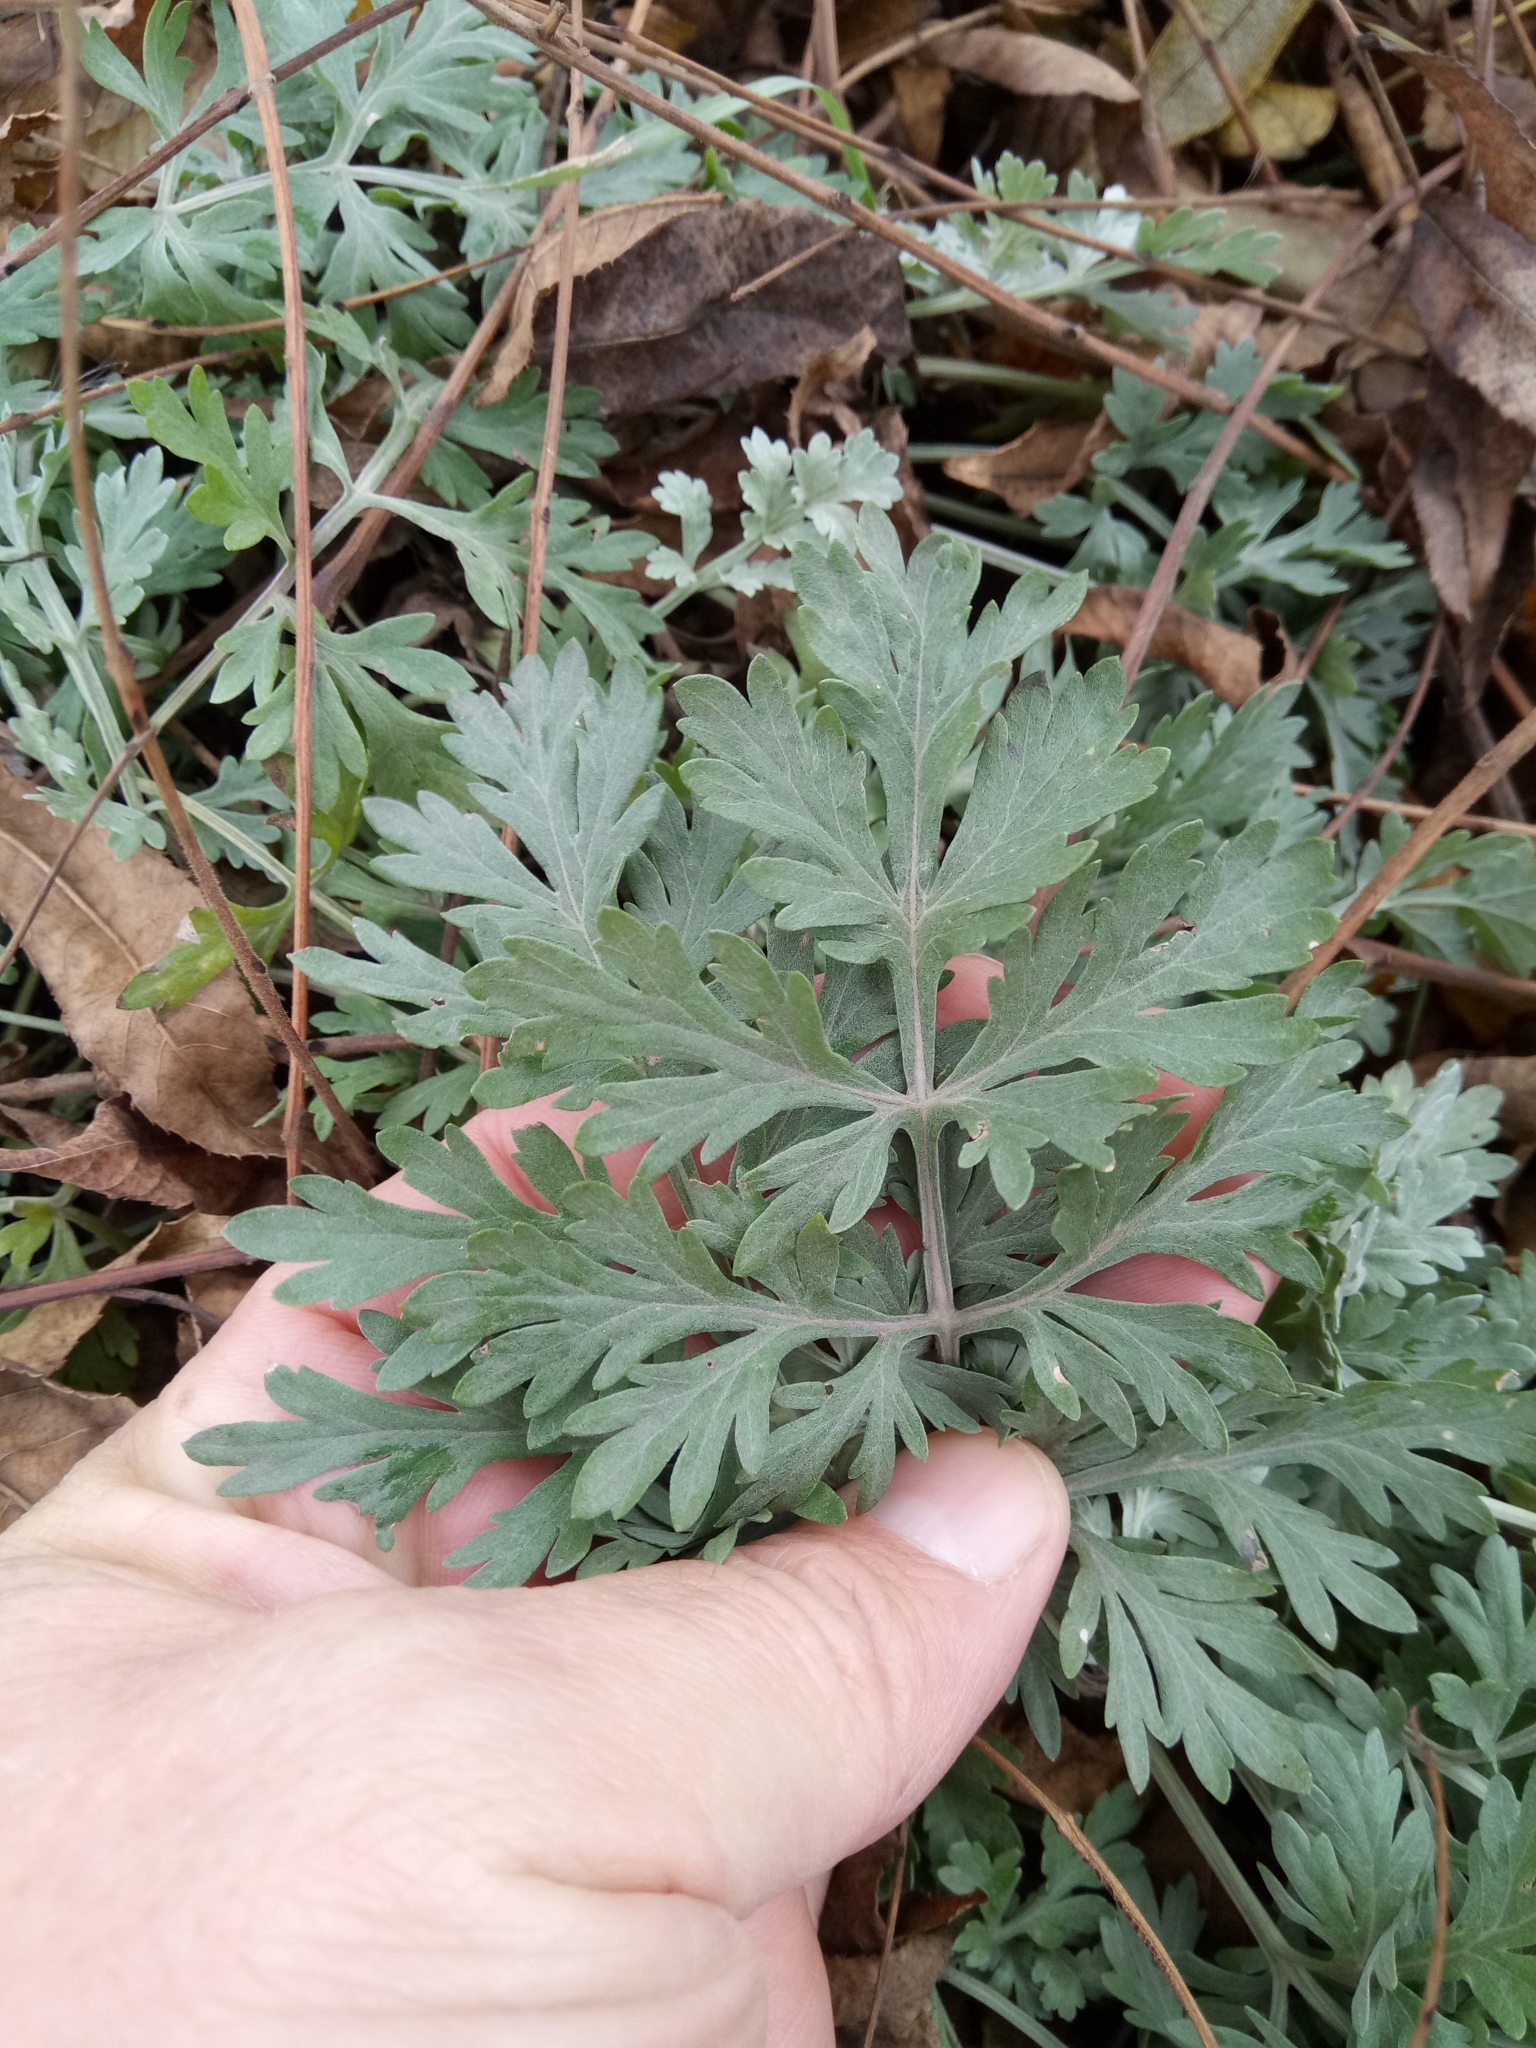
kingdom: Plantae
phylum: Tracheophyta
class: Magnoliopsida
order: Asterales
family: Asteraceae
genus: Artemisia
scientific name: Artemisia absinthium
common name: Wormwood
